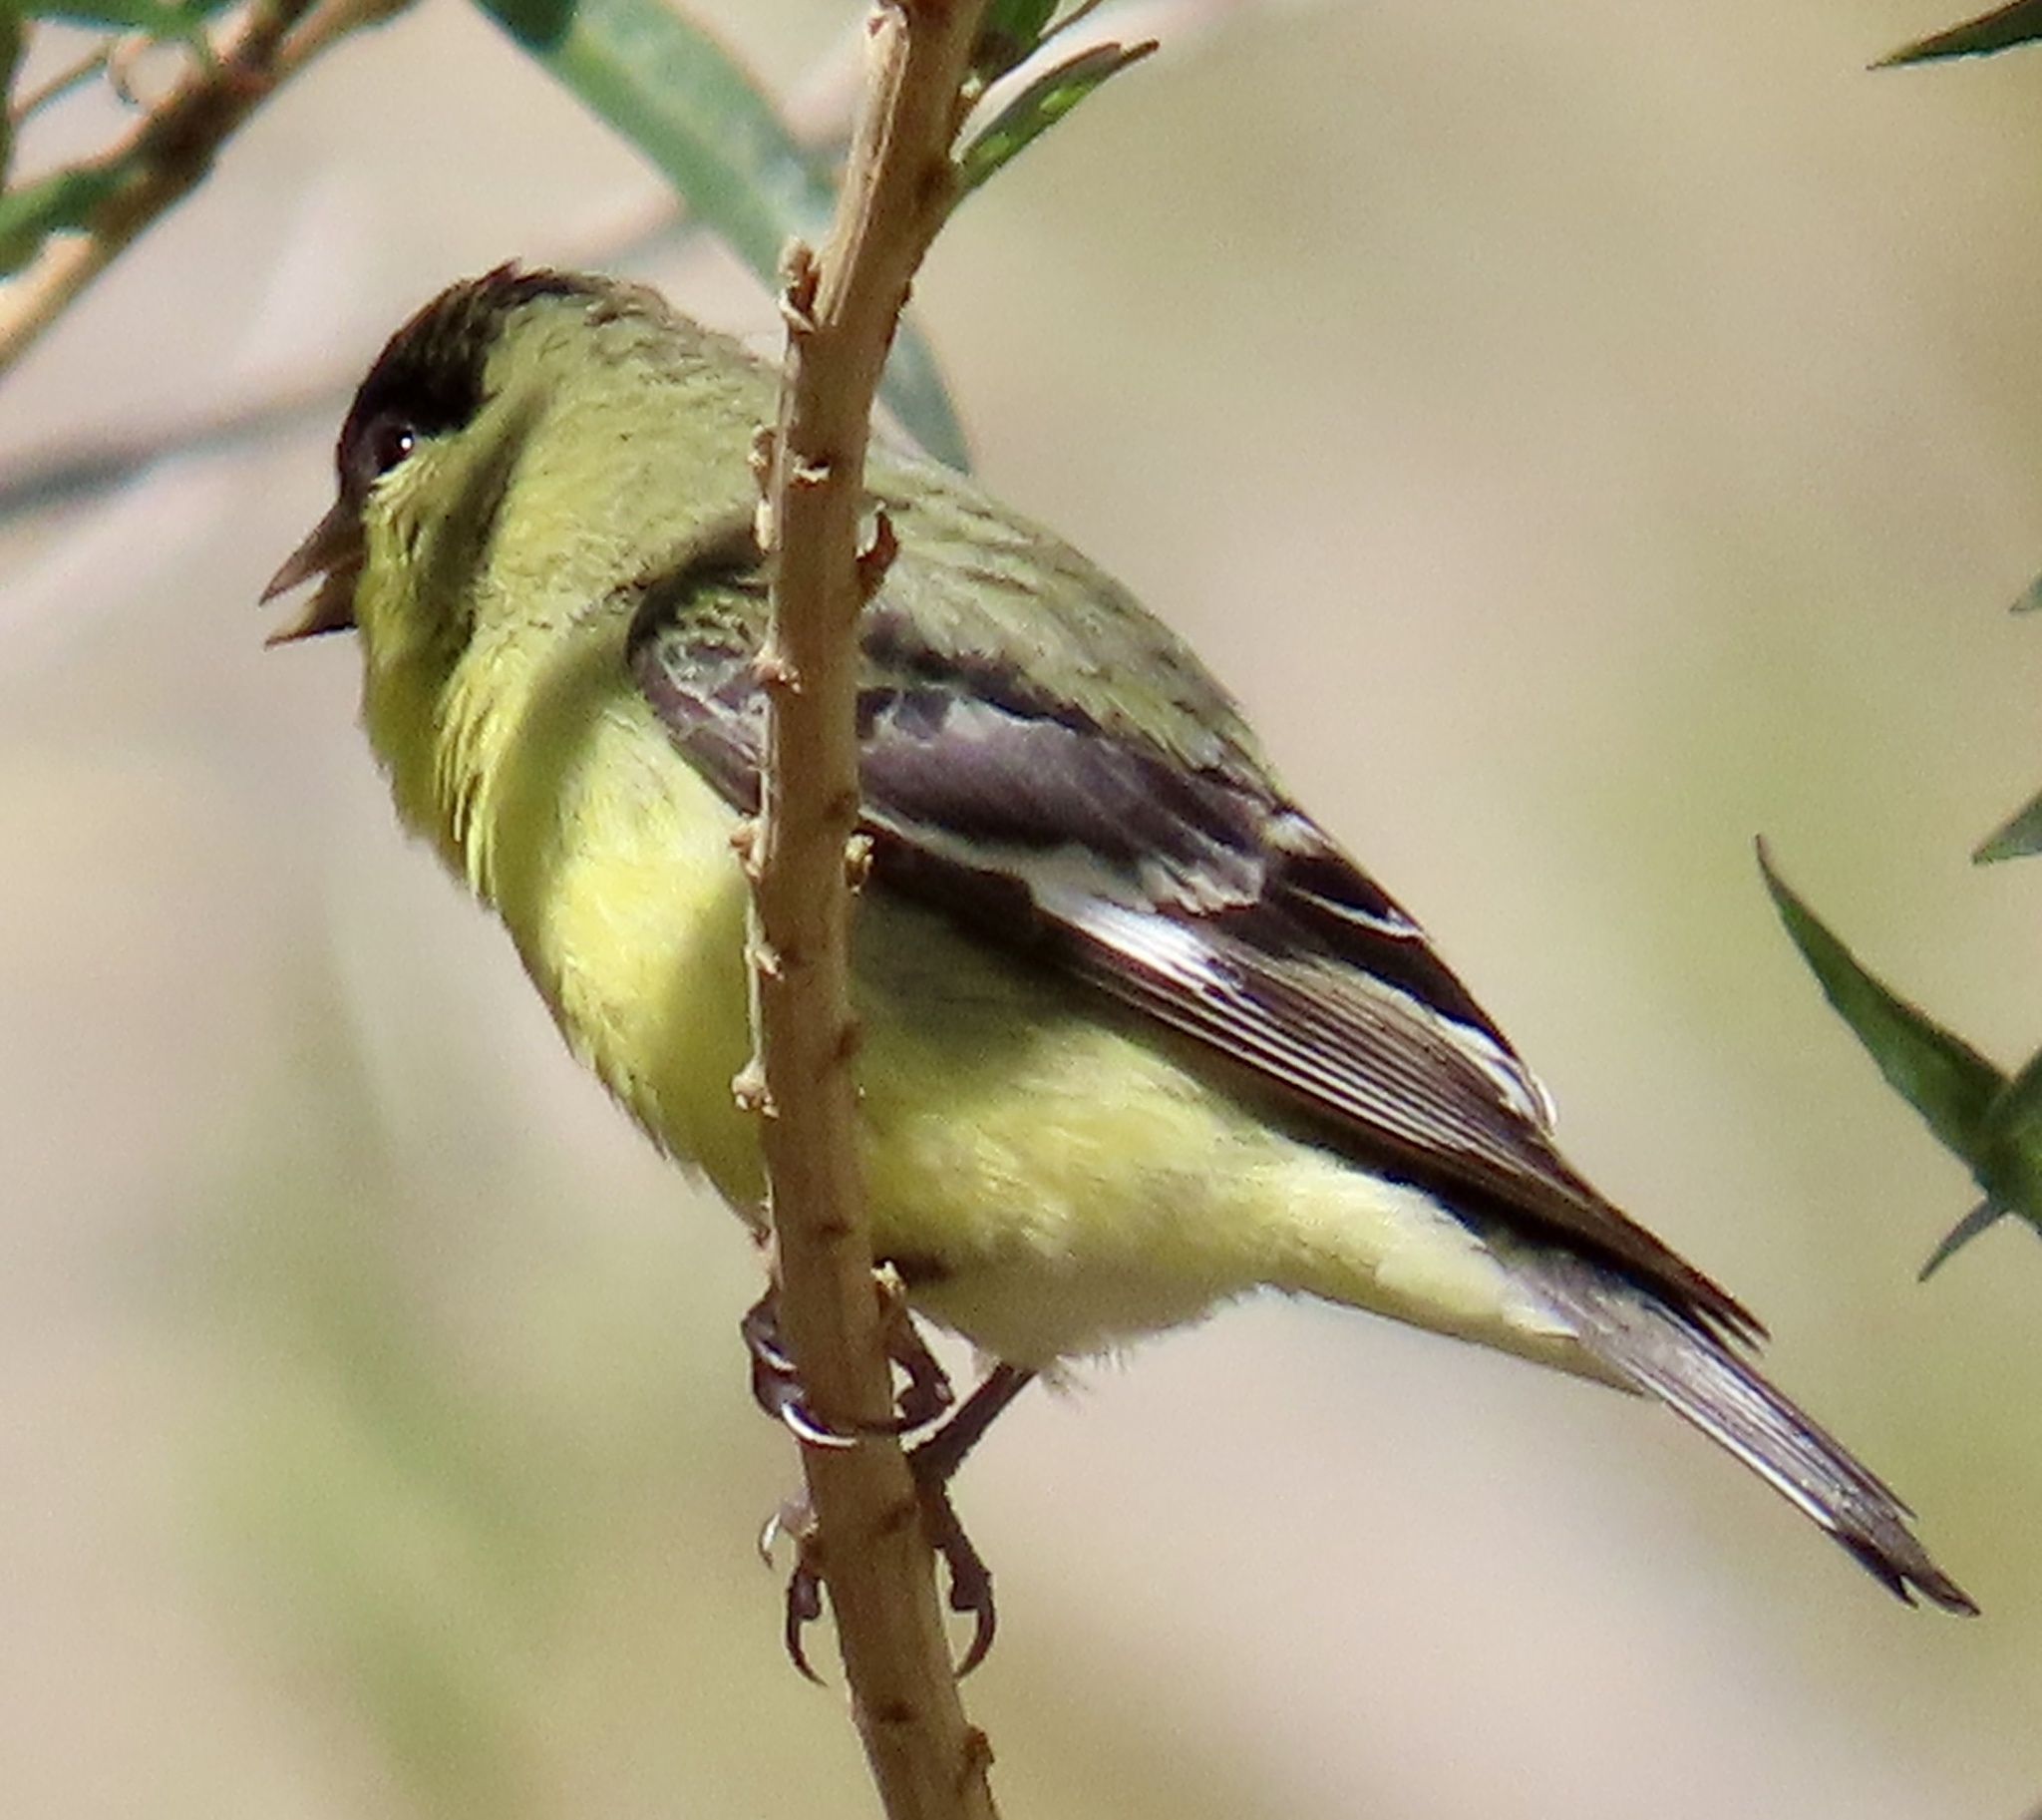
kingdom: Animalia
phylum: Chordata
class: Aves
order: Passeriformes
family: Fringillidae
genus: Spinus
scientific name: Spinus psaltria
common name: Lesser goldfinch
